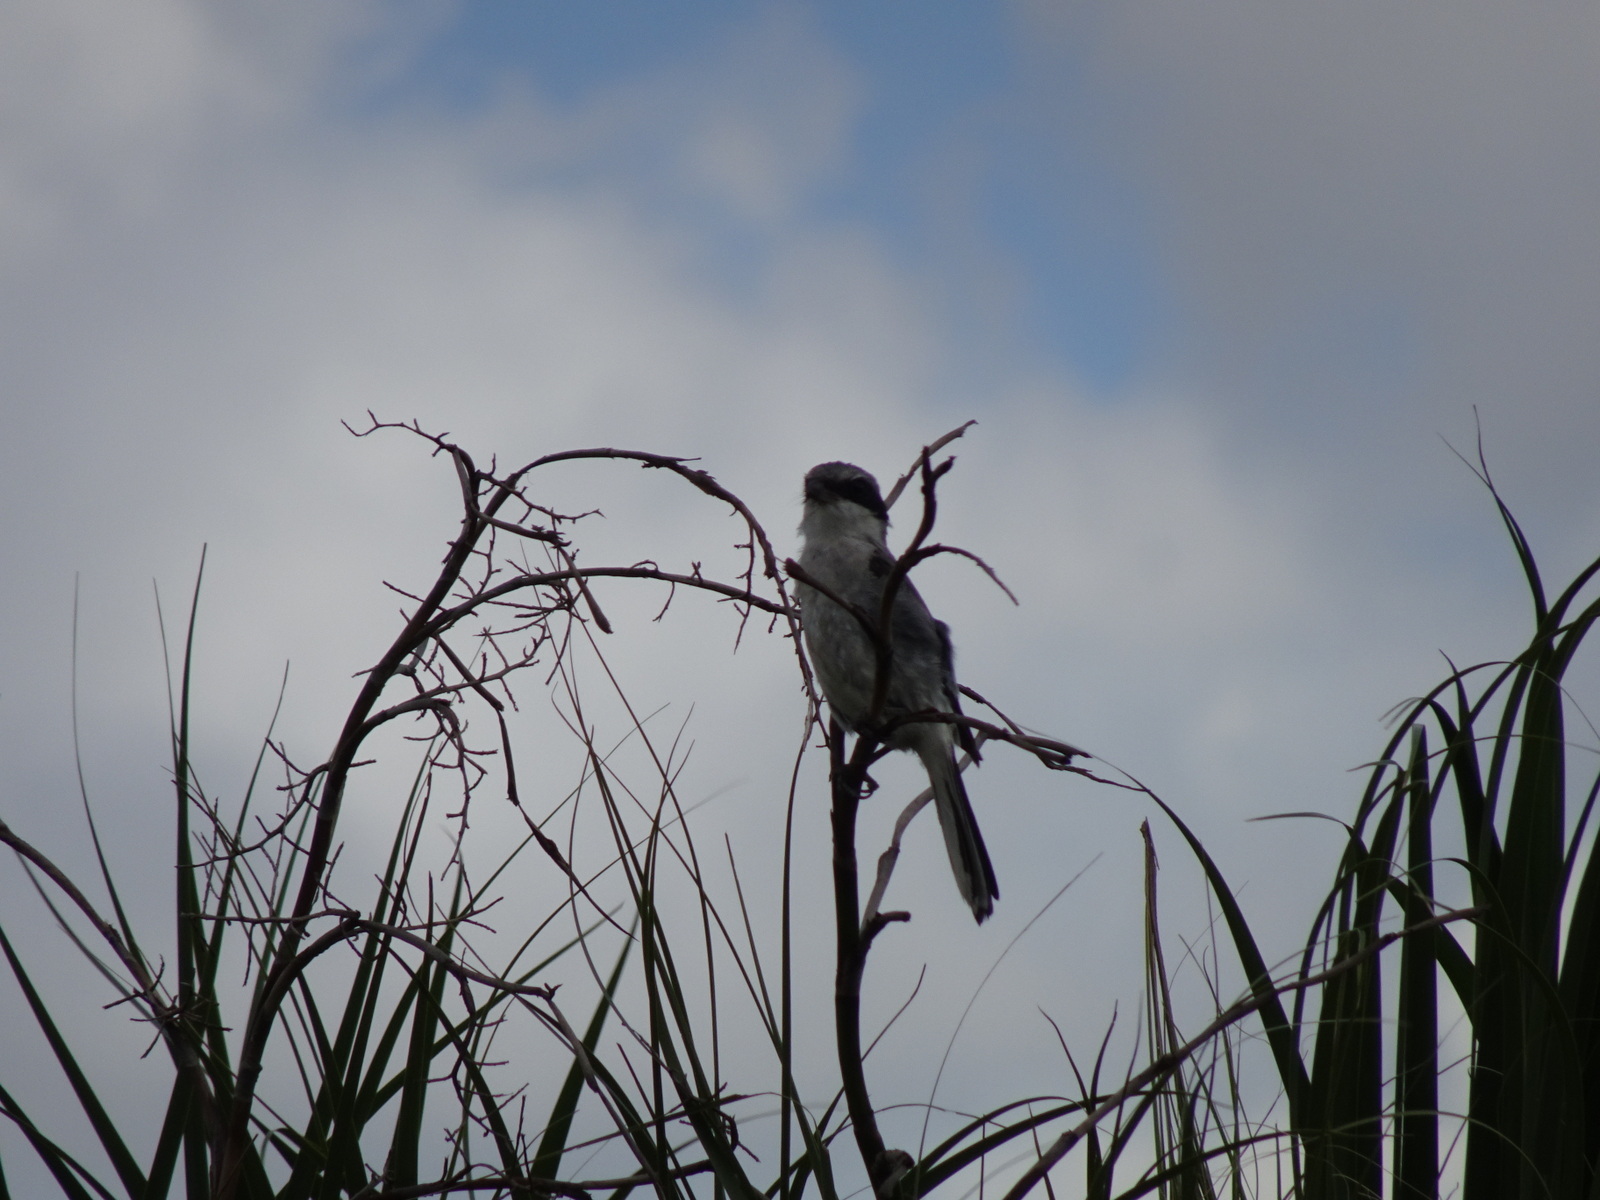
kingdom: Animalia
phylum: Chordata
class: Aves
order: Passeriformes
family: Laniidae
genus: Lanius
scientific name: Lanius ludovicianus
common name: Loggerhead shrike
